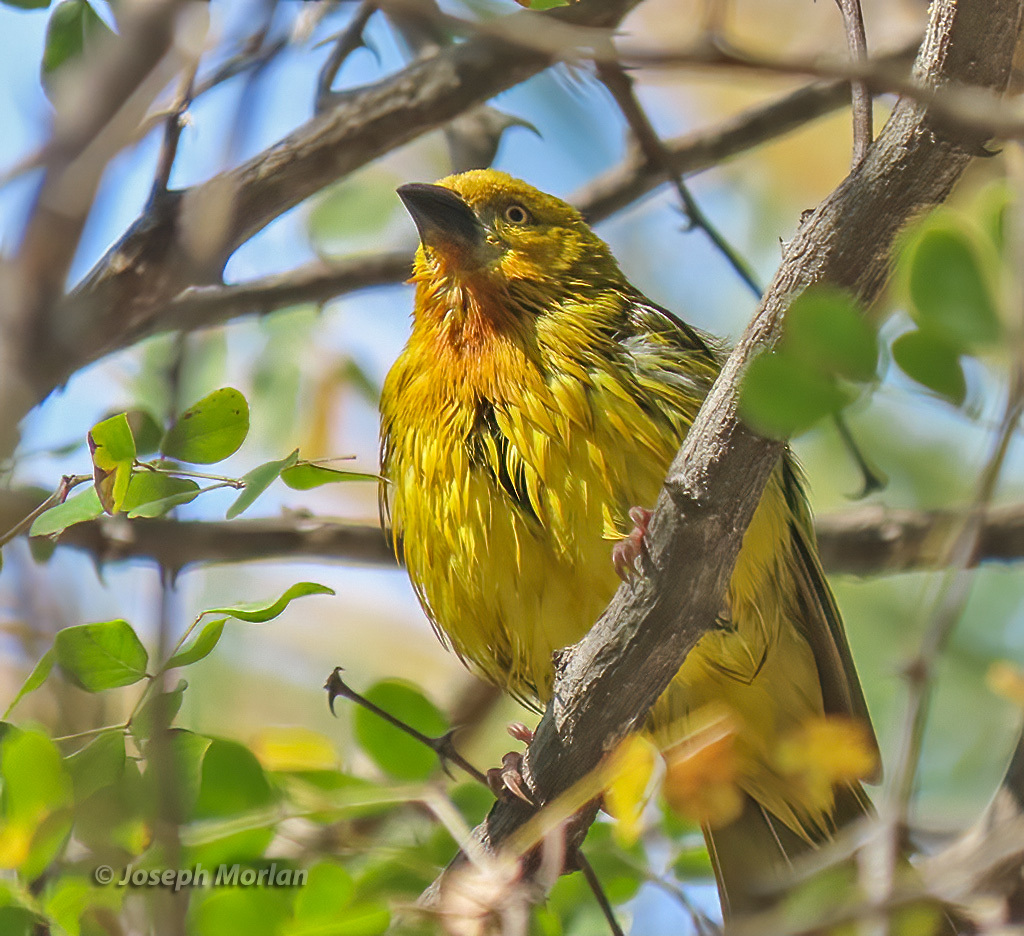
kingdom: Animalia
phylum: Chordata
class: Aves
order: Passeriformes
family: Ploceidae
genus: Ploceus
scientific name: Ploceus xanthops
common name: Holub's golden weaver
